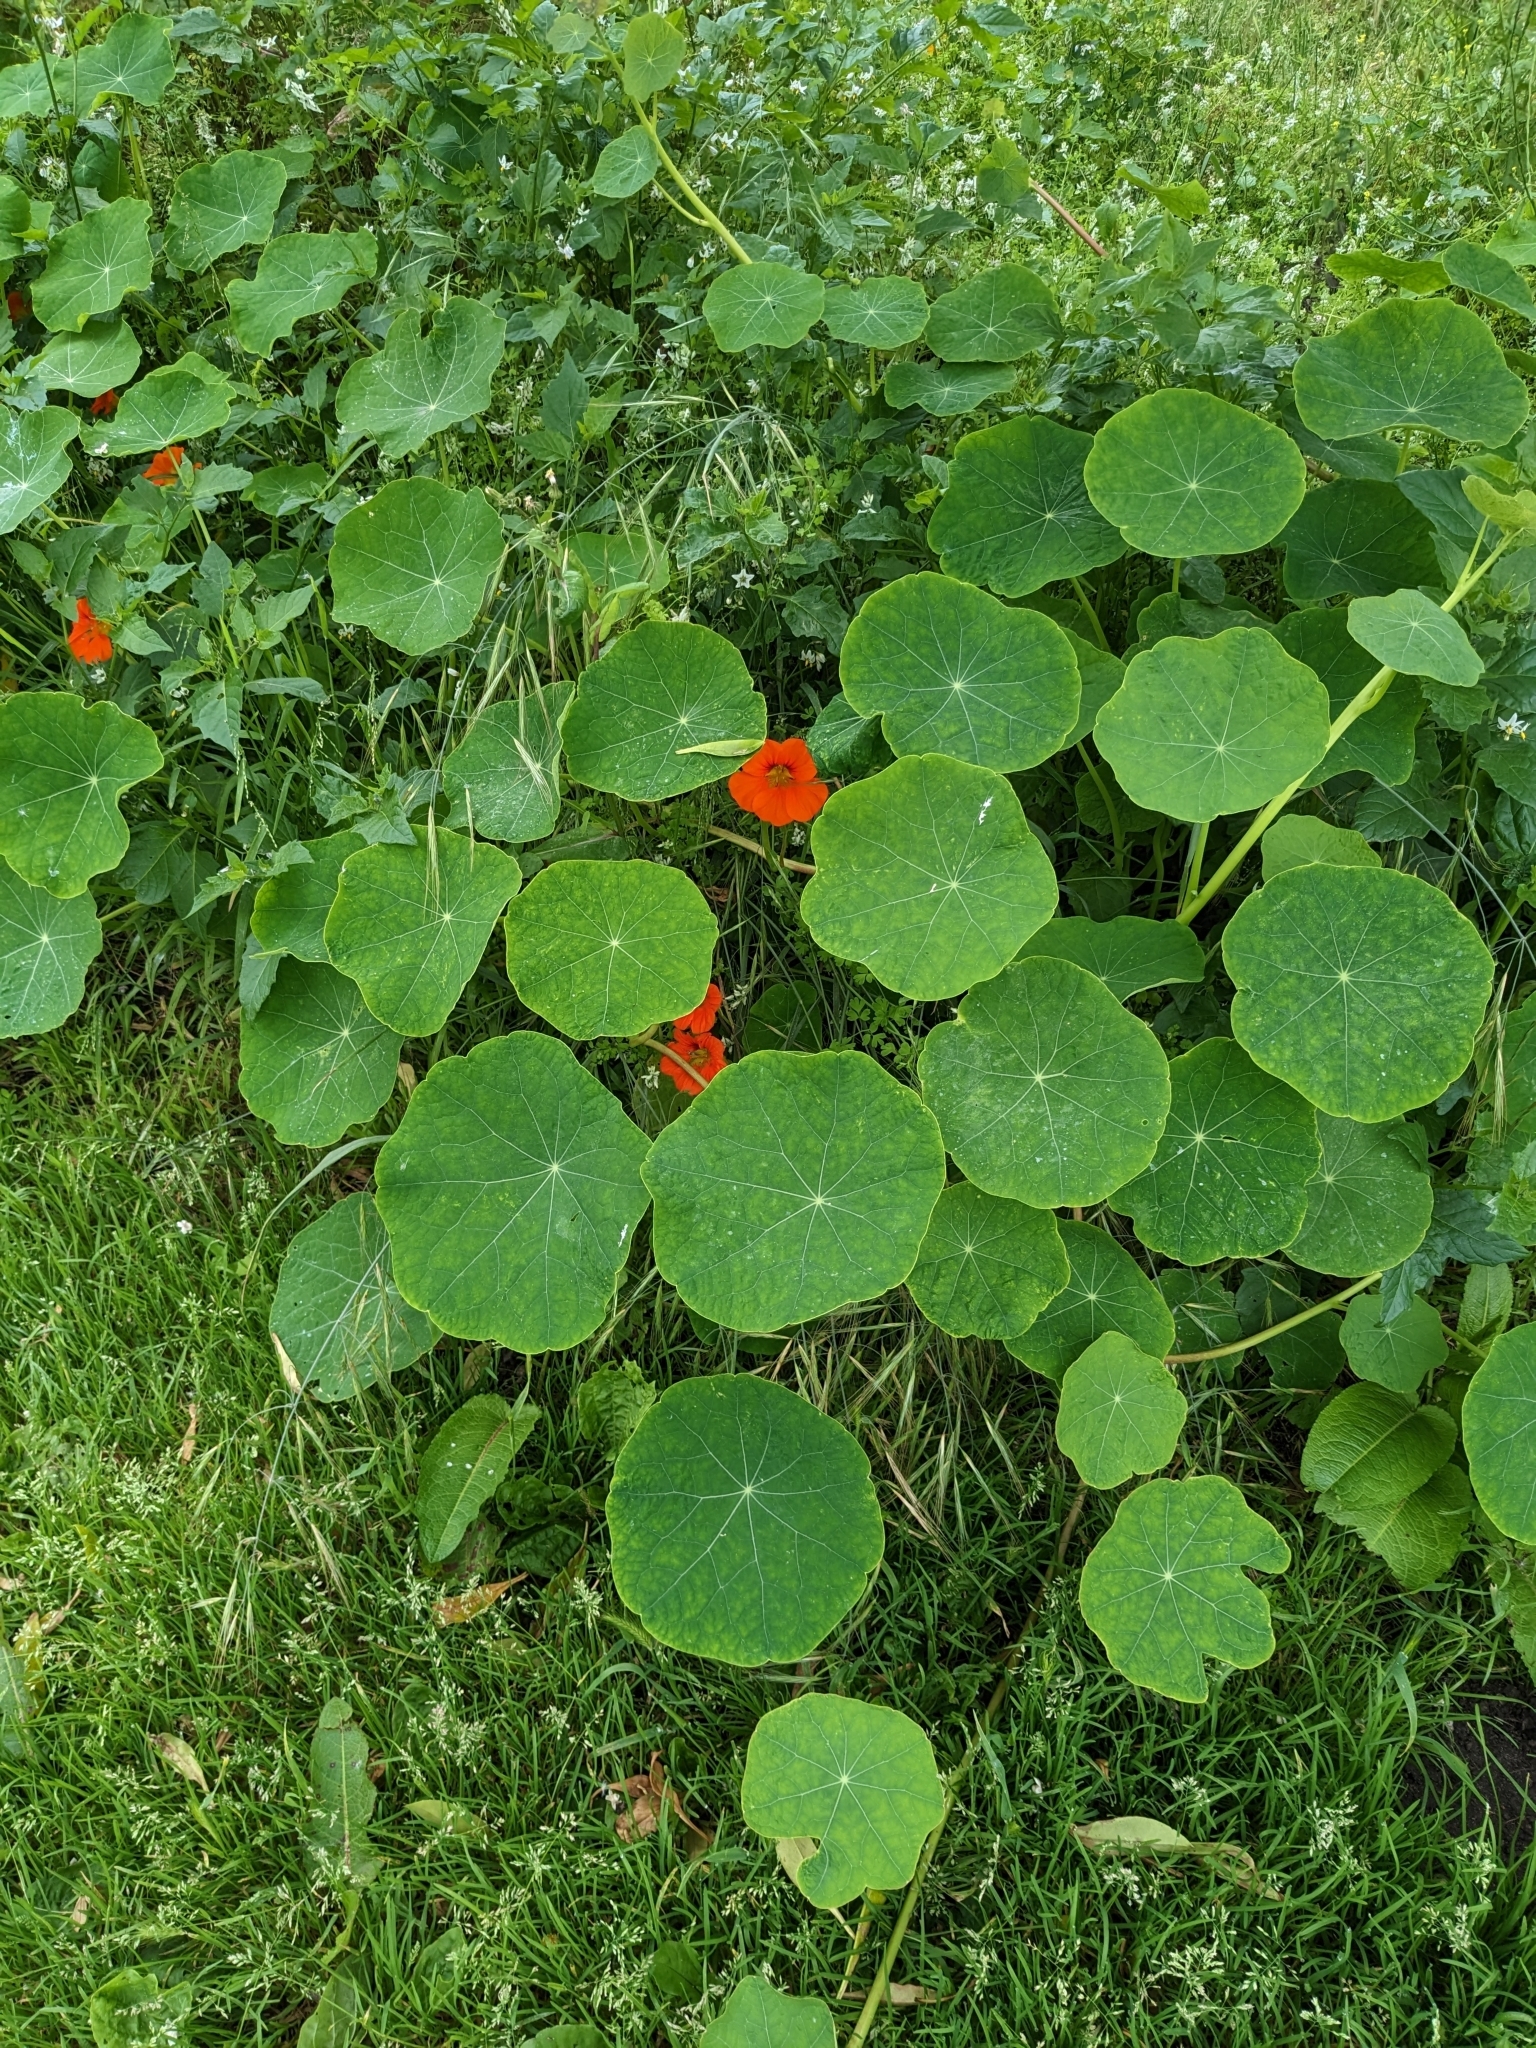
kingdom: Plantae
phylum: Tracheophyta
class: Magnoliopsida
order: Brassicales
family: Tropaeolaceae
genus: Tropaeolum
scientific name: Tropaeolum majus
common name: Nasturtium
